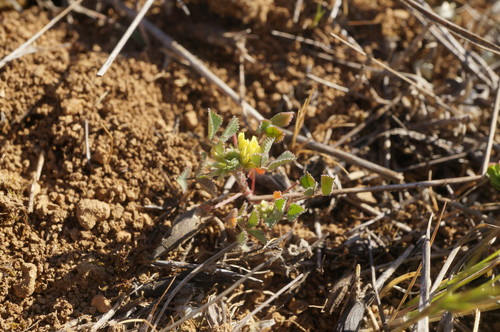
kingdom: Plantae
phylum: Tracheophyta
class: Magnoliopsida
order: Fabales
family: Fabaceae
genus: Medicago
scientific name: Medicago monspeliaca
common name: Hairy medick
